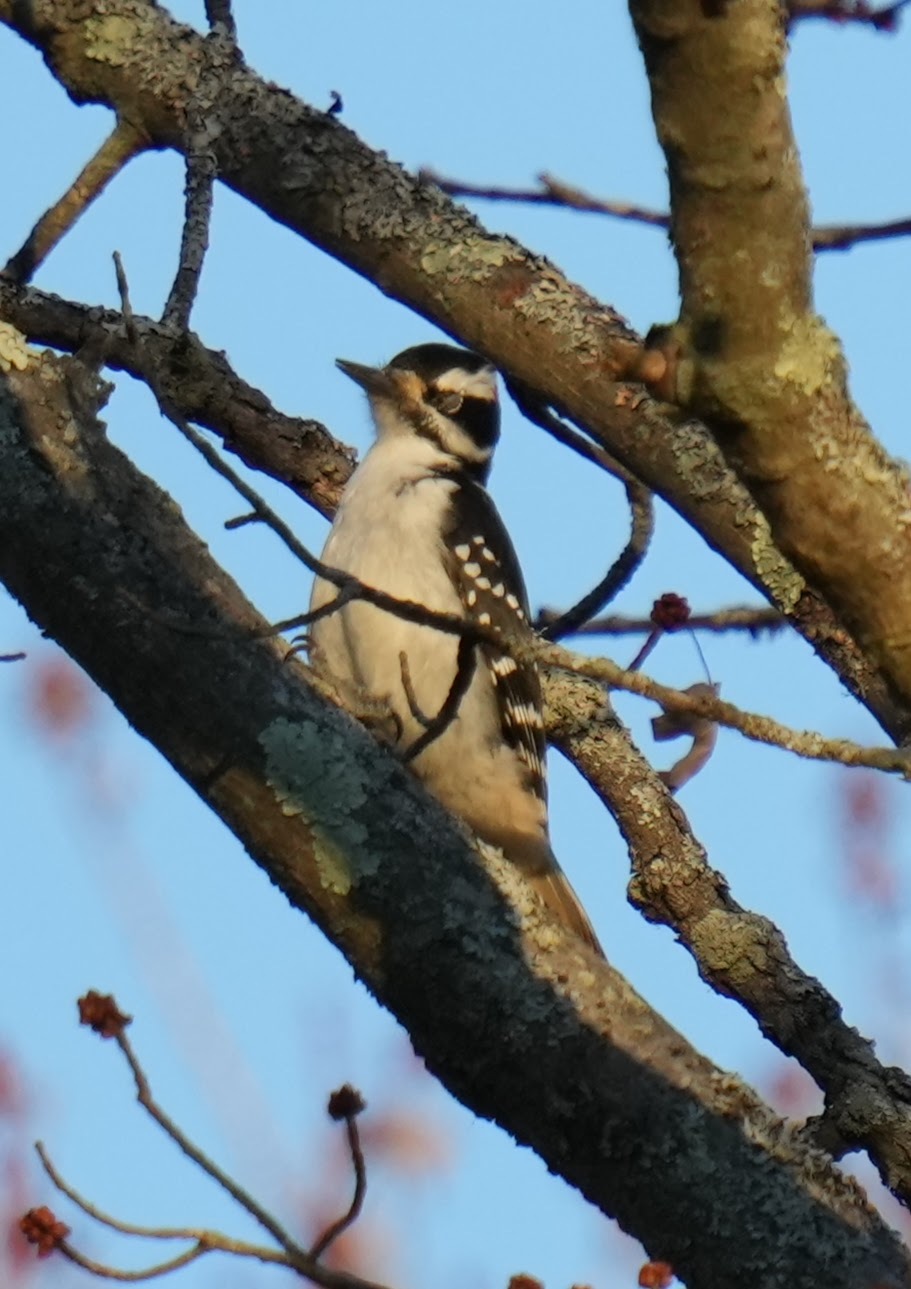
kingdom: Animalia
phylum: Chordata
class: Aves
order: Piciformes
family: Picidae
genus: Dryobates
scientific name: Dryobates pubescens
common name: Downy woodpecker
